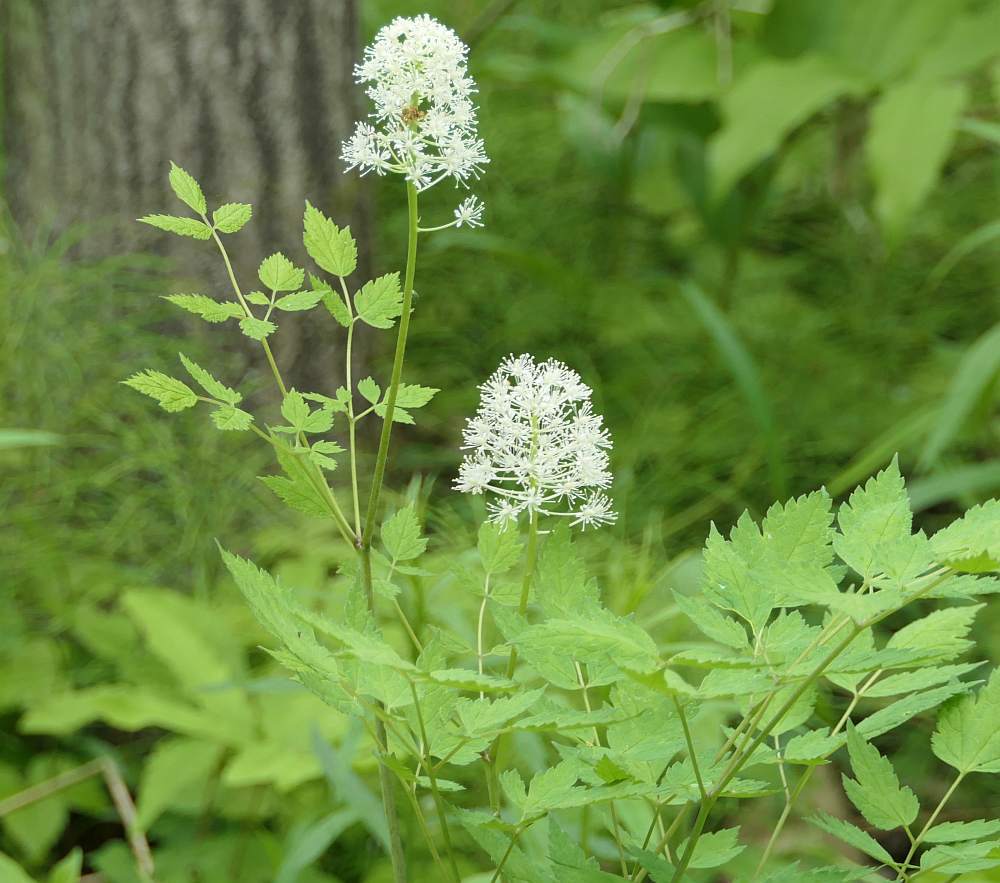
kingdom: Plantae
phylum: Tracheophyta
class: Magnoliopsida
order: Ranunculales
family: Ranunculaceae
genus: Actaea
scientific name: Actaea rubra
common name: Red baneberry
